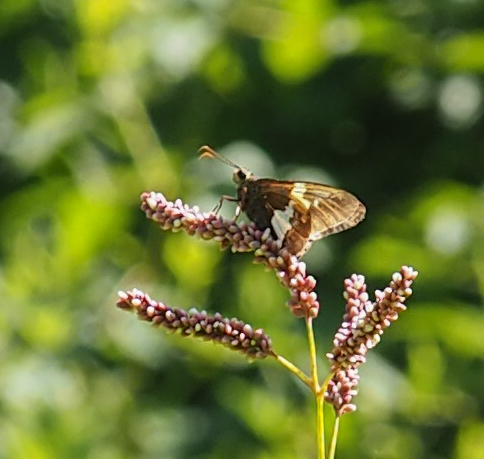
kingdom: Animalia
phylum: Arthropoda
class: Insecta
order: Lepidoptera
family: Hesperiidae
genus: Epargyreus
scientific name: Epargyreus clarus
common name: Silver-spotted skipper
